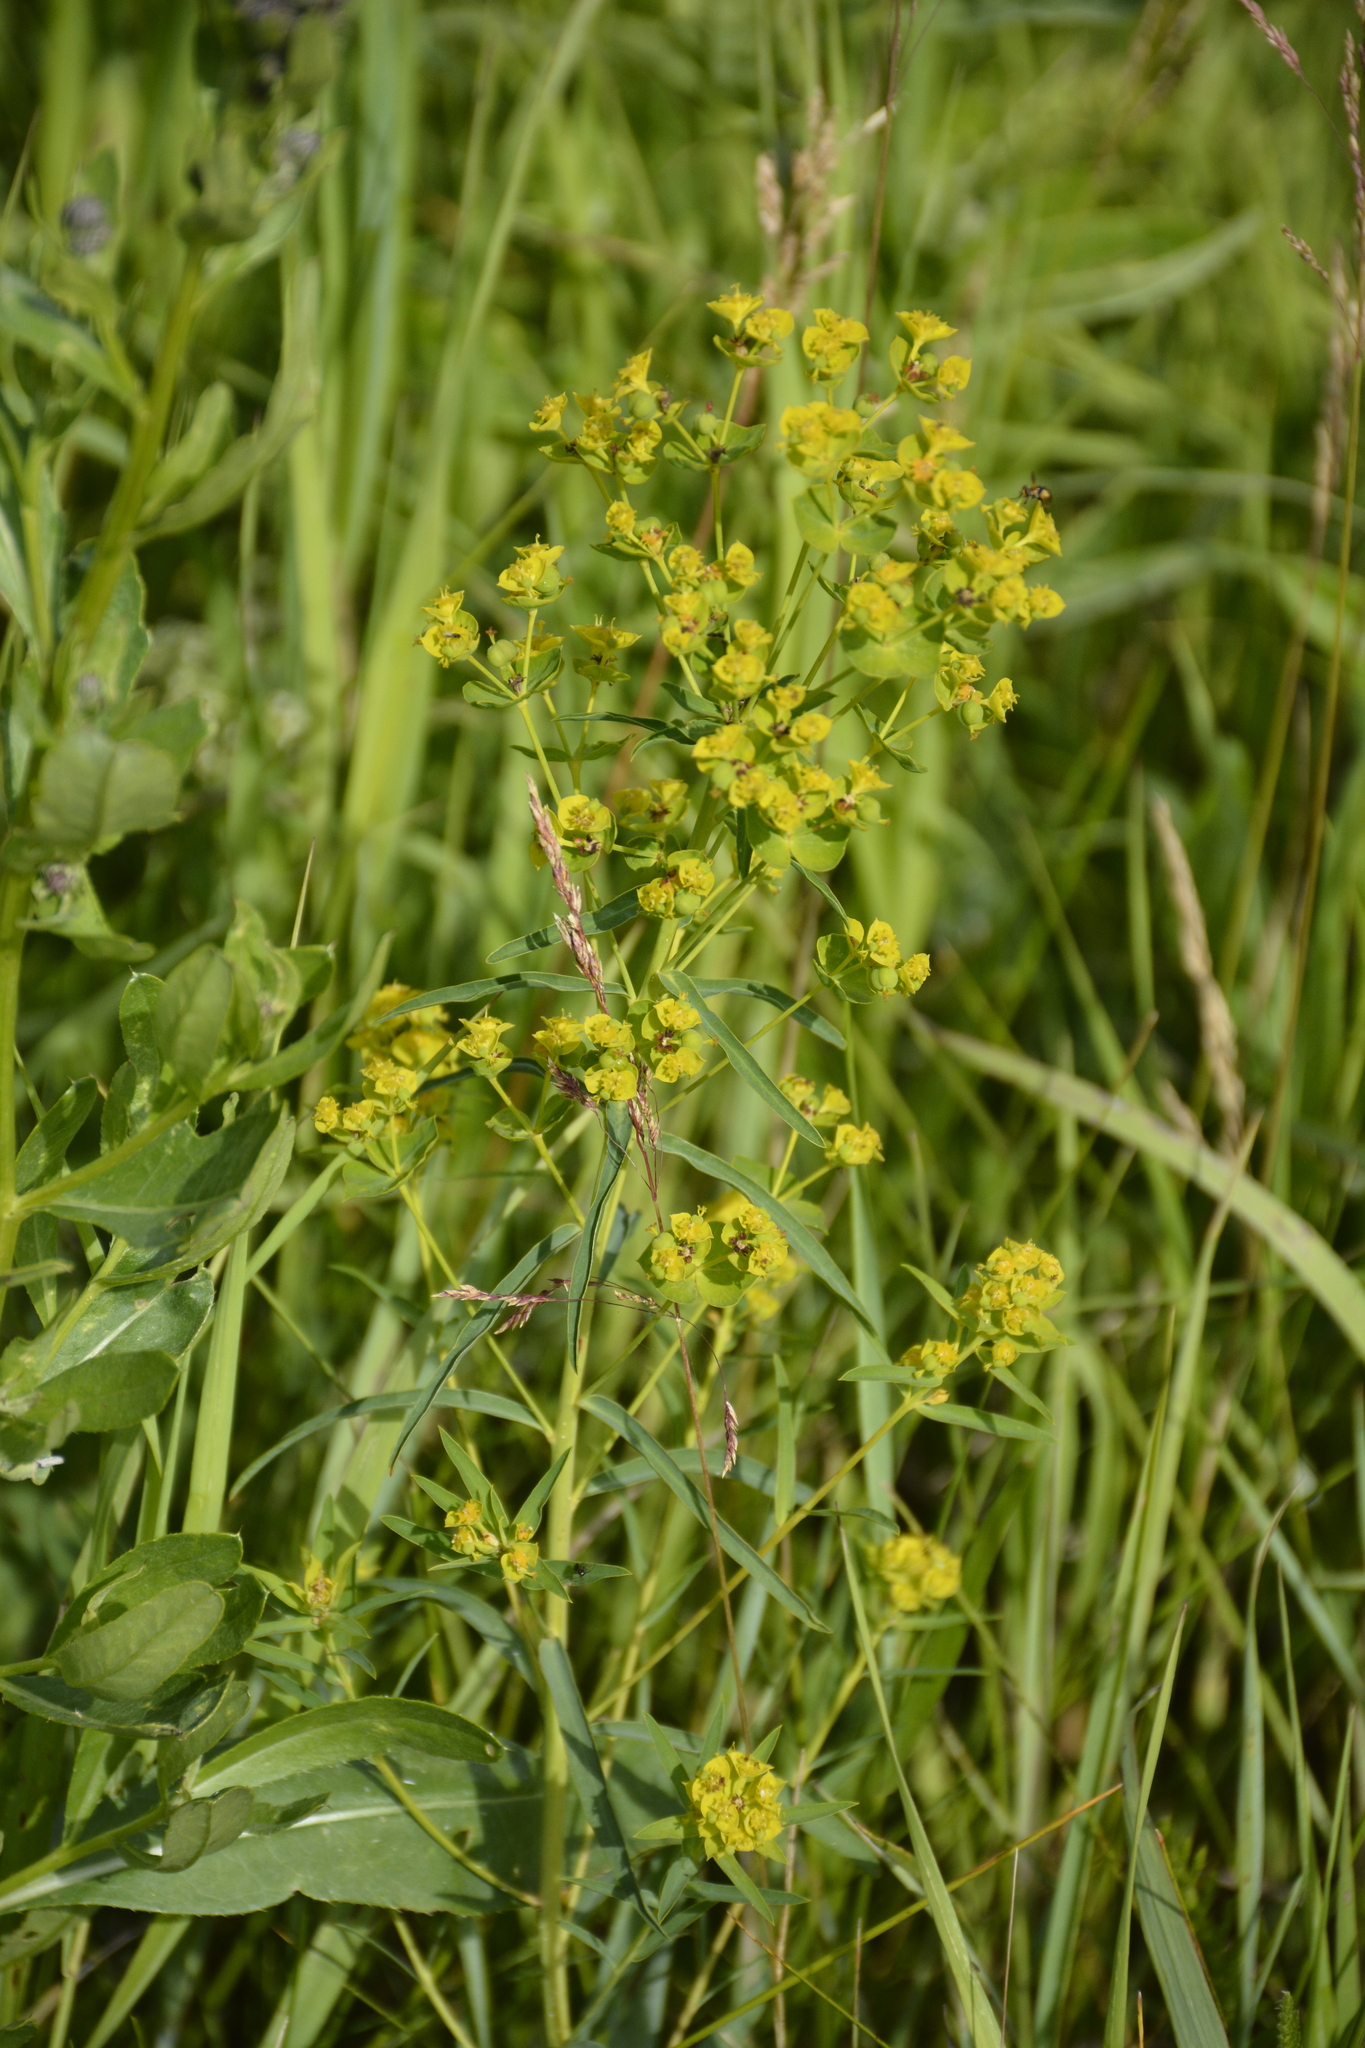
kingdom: Plantae
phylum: Tracheophyta
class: Magnoliopsida
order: Malpighiales
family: Euphorbiaceae
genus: Euphorbia
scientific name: Euphorbia virgata
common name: Leafy spurge
